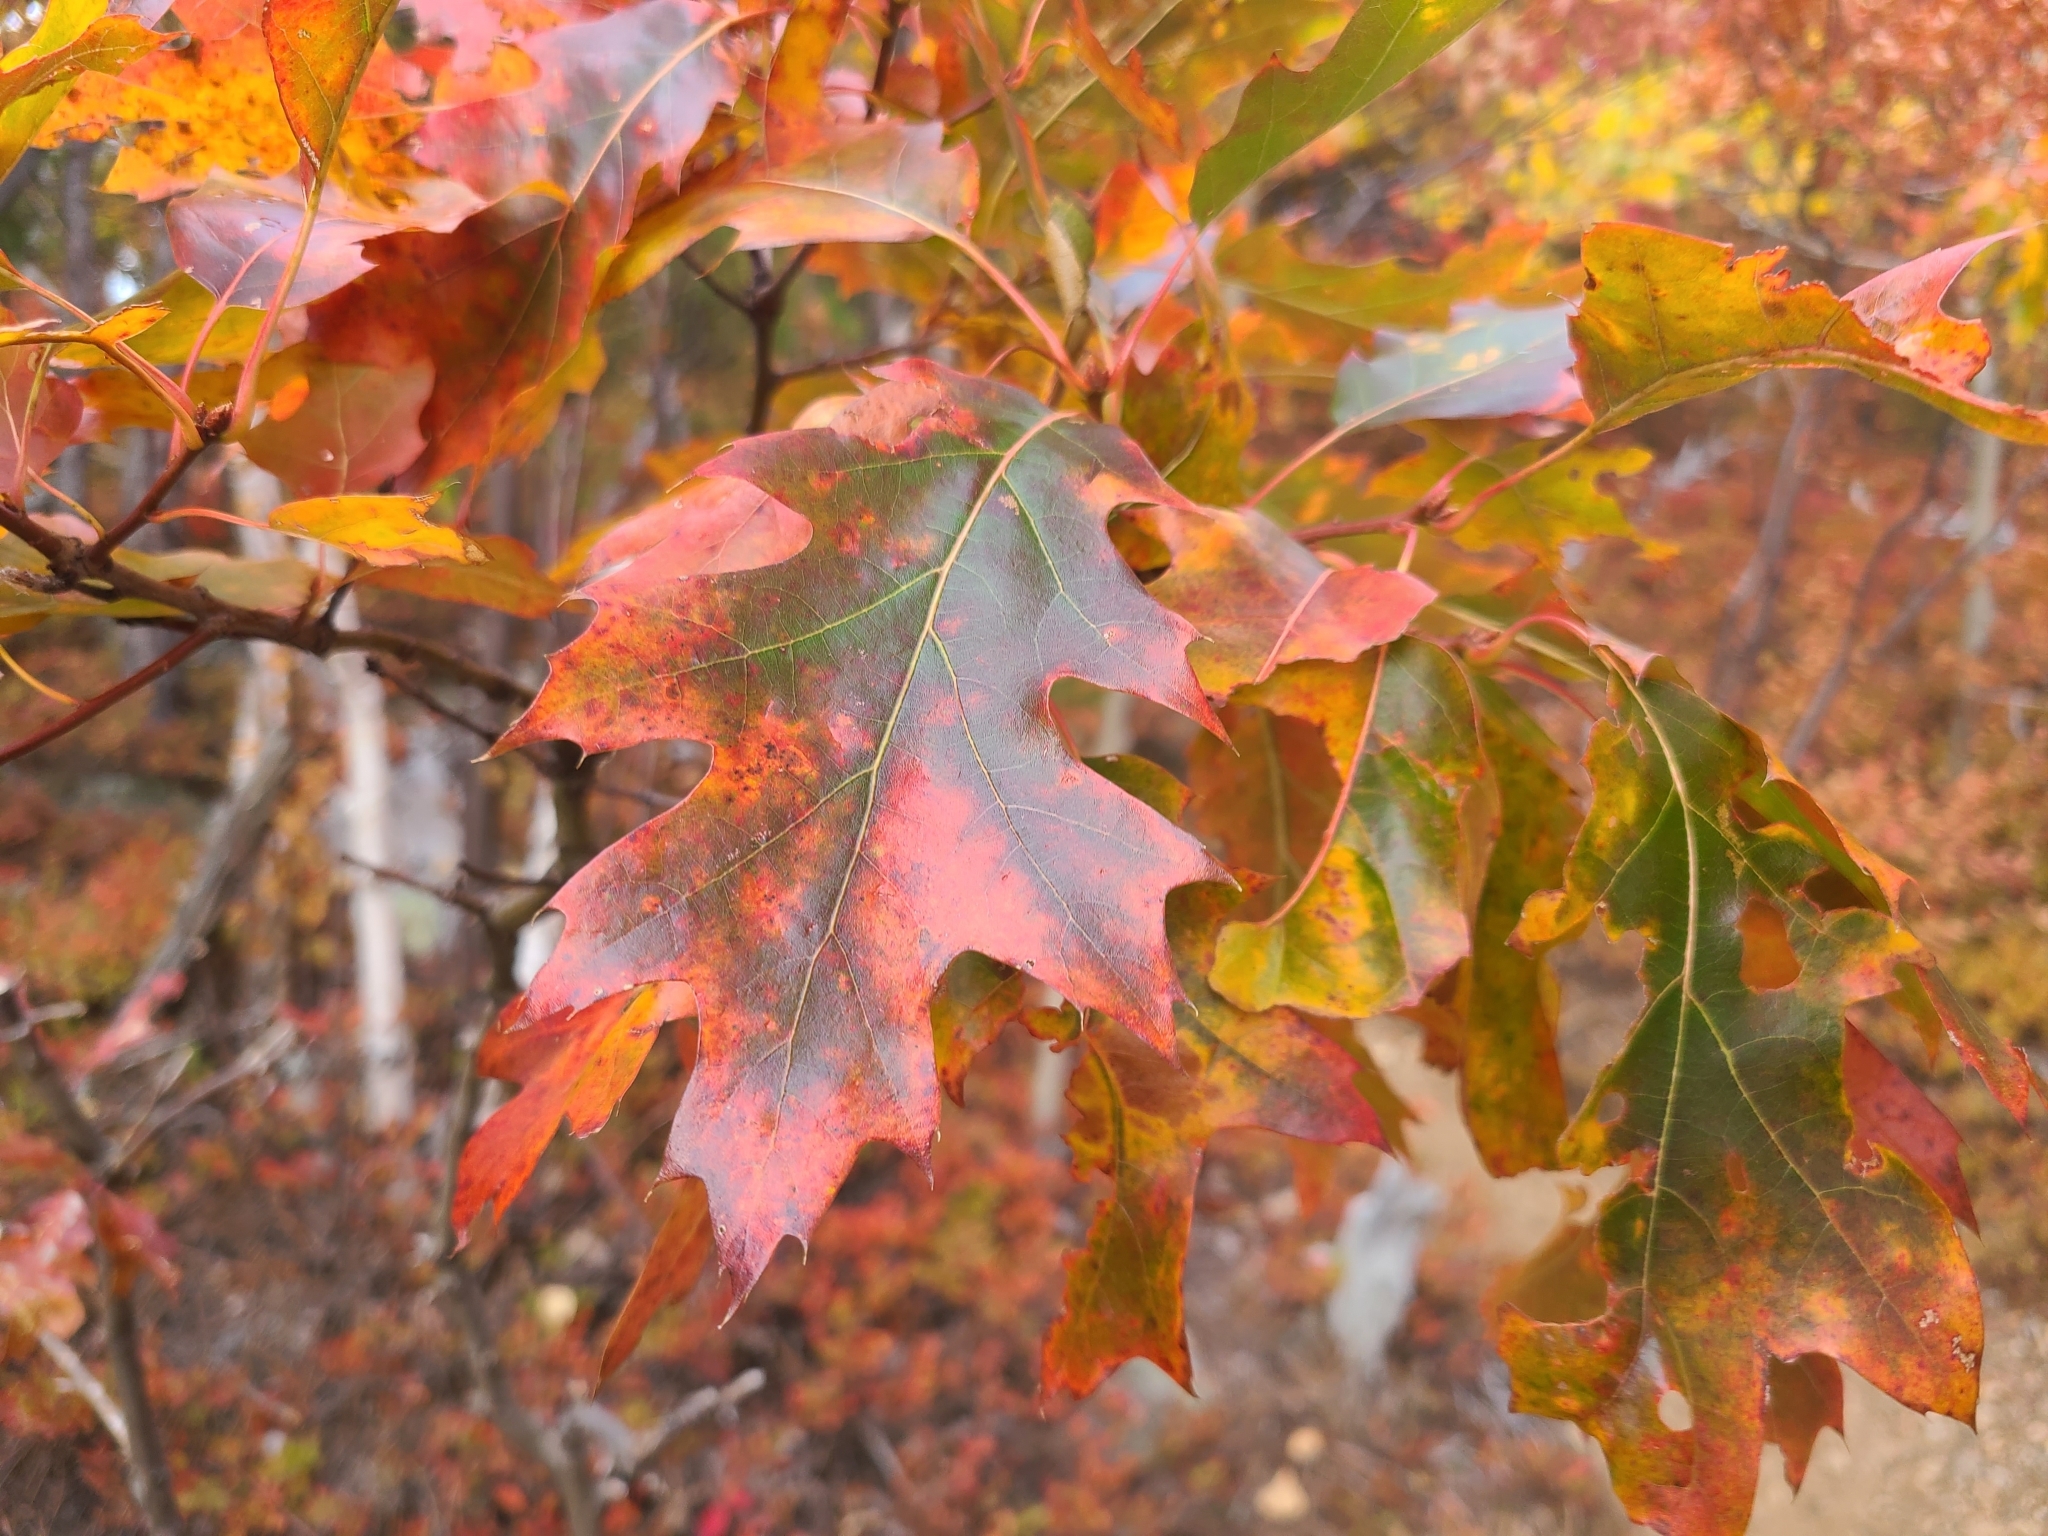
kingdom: Plantae
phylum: Tracheophyta
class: Magnoliopsida
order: Fagales
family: Fagaceae
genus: Quercus
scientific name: Quercus rubra
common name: Red oak
